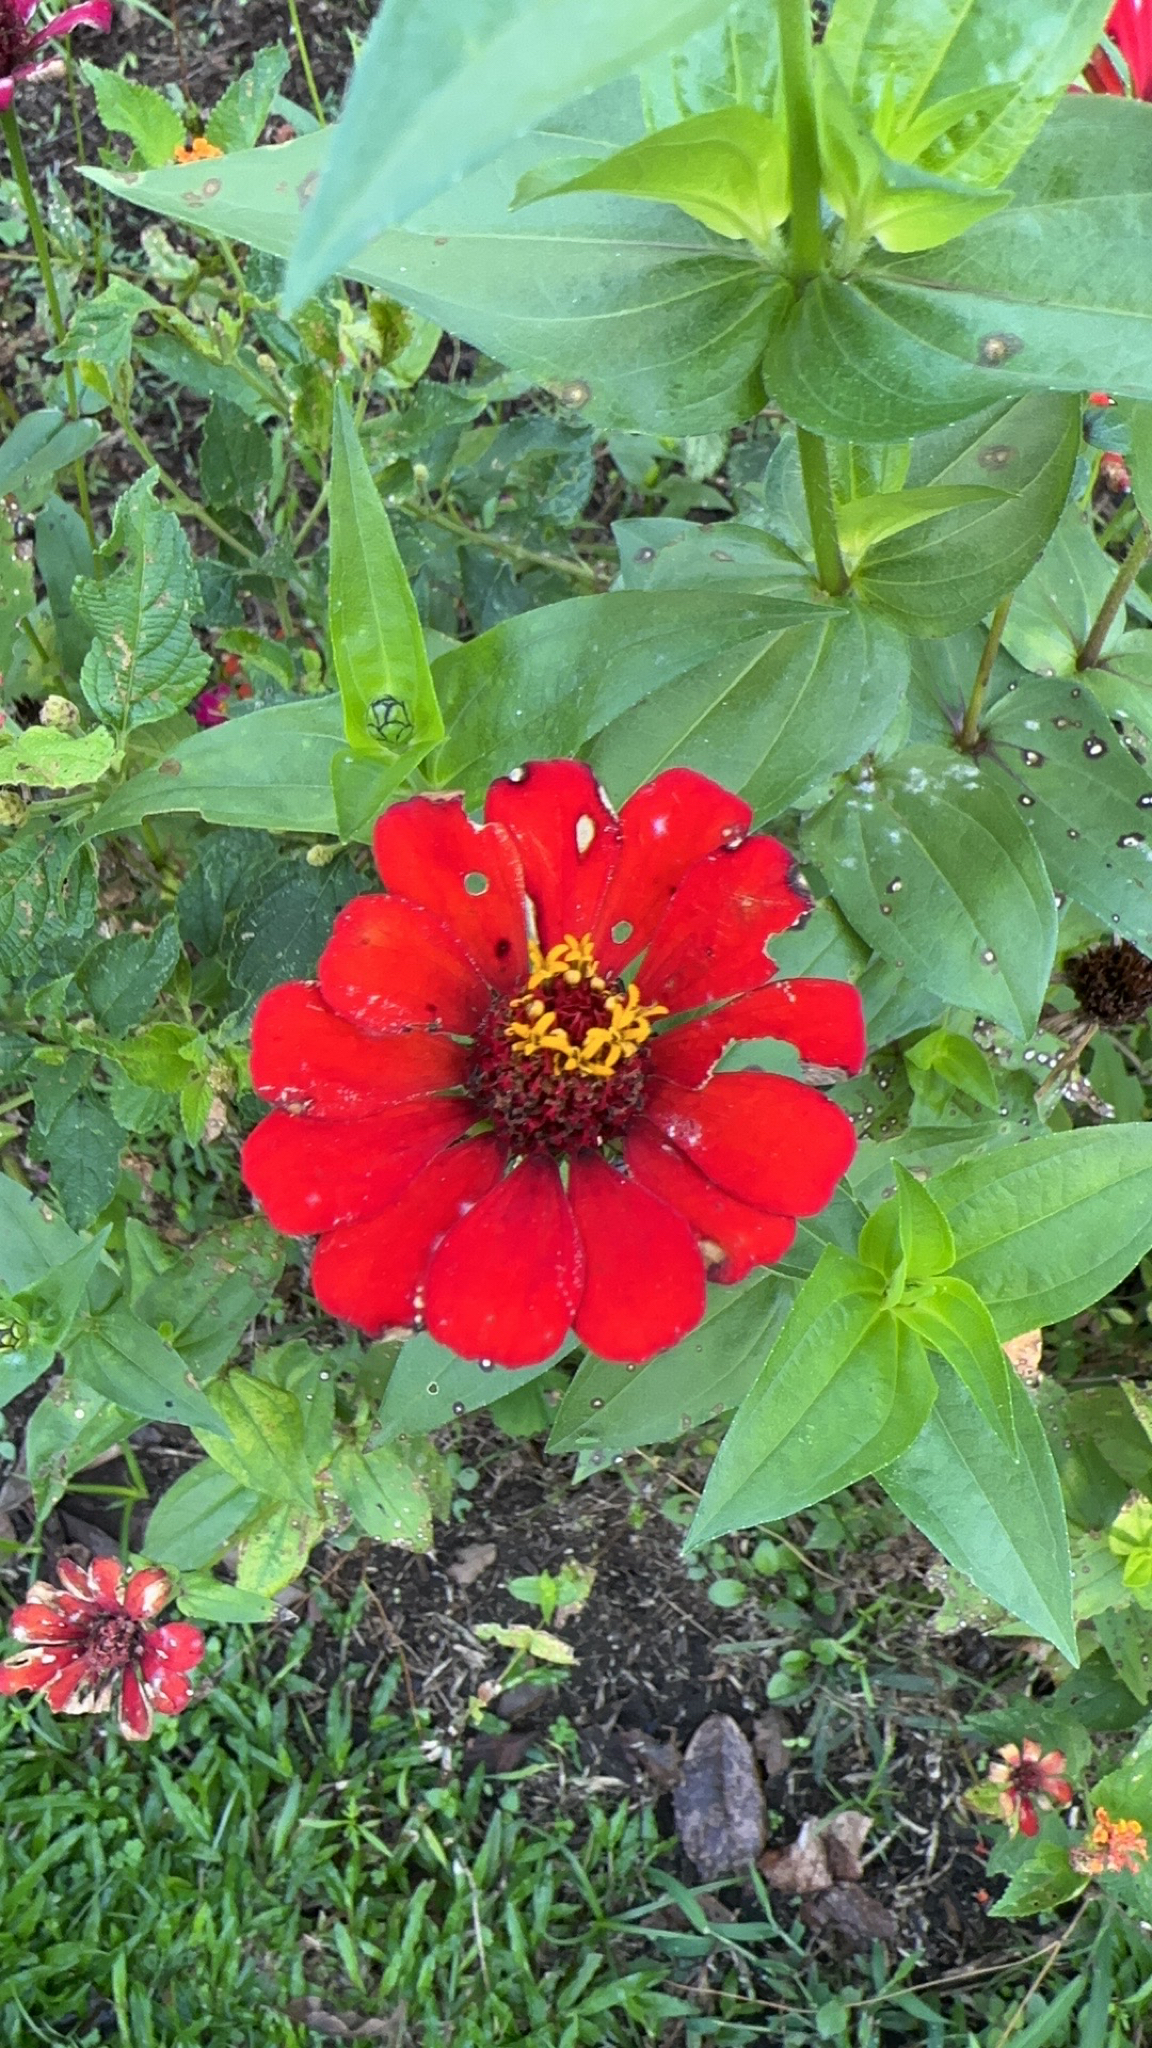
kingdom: Plantae
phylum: Tracheophyta
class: Magnoliopsida
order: Asterales
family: Asteraceae
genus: Zinnia
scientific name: Zinnia elegans
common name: Youth-and-age
